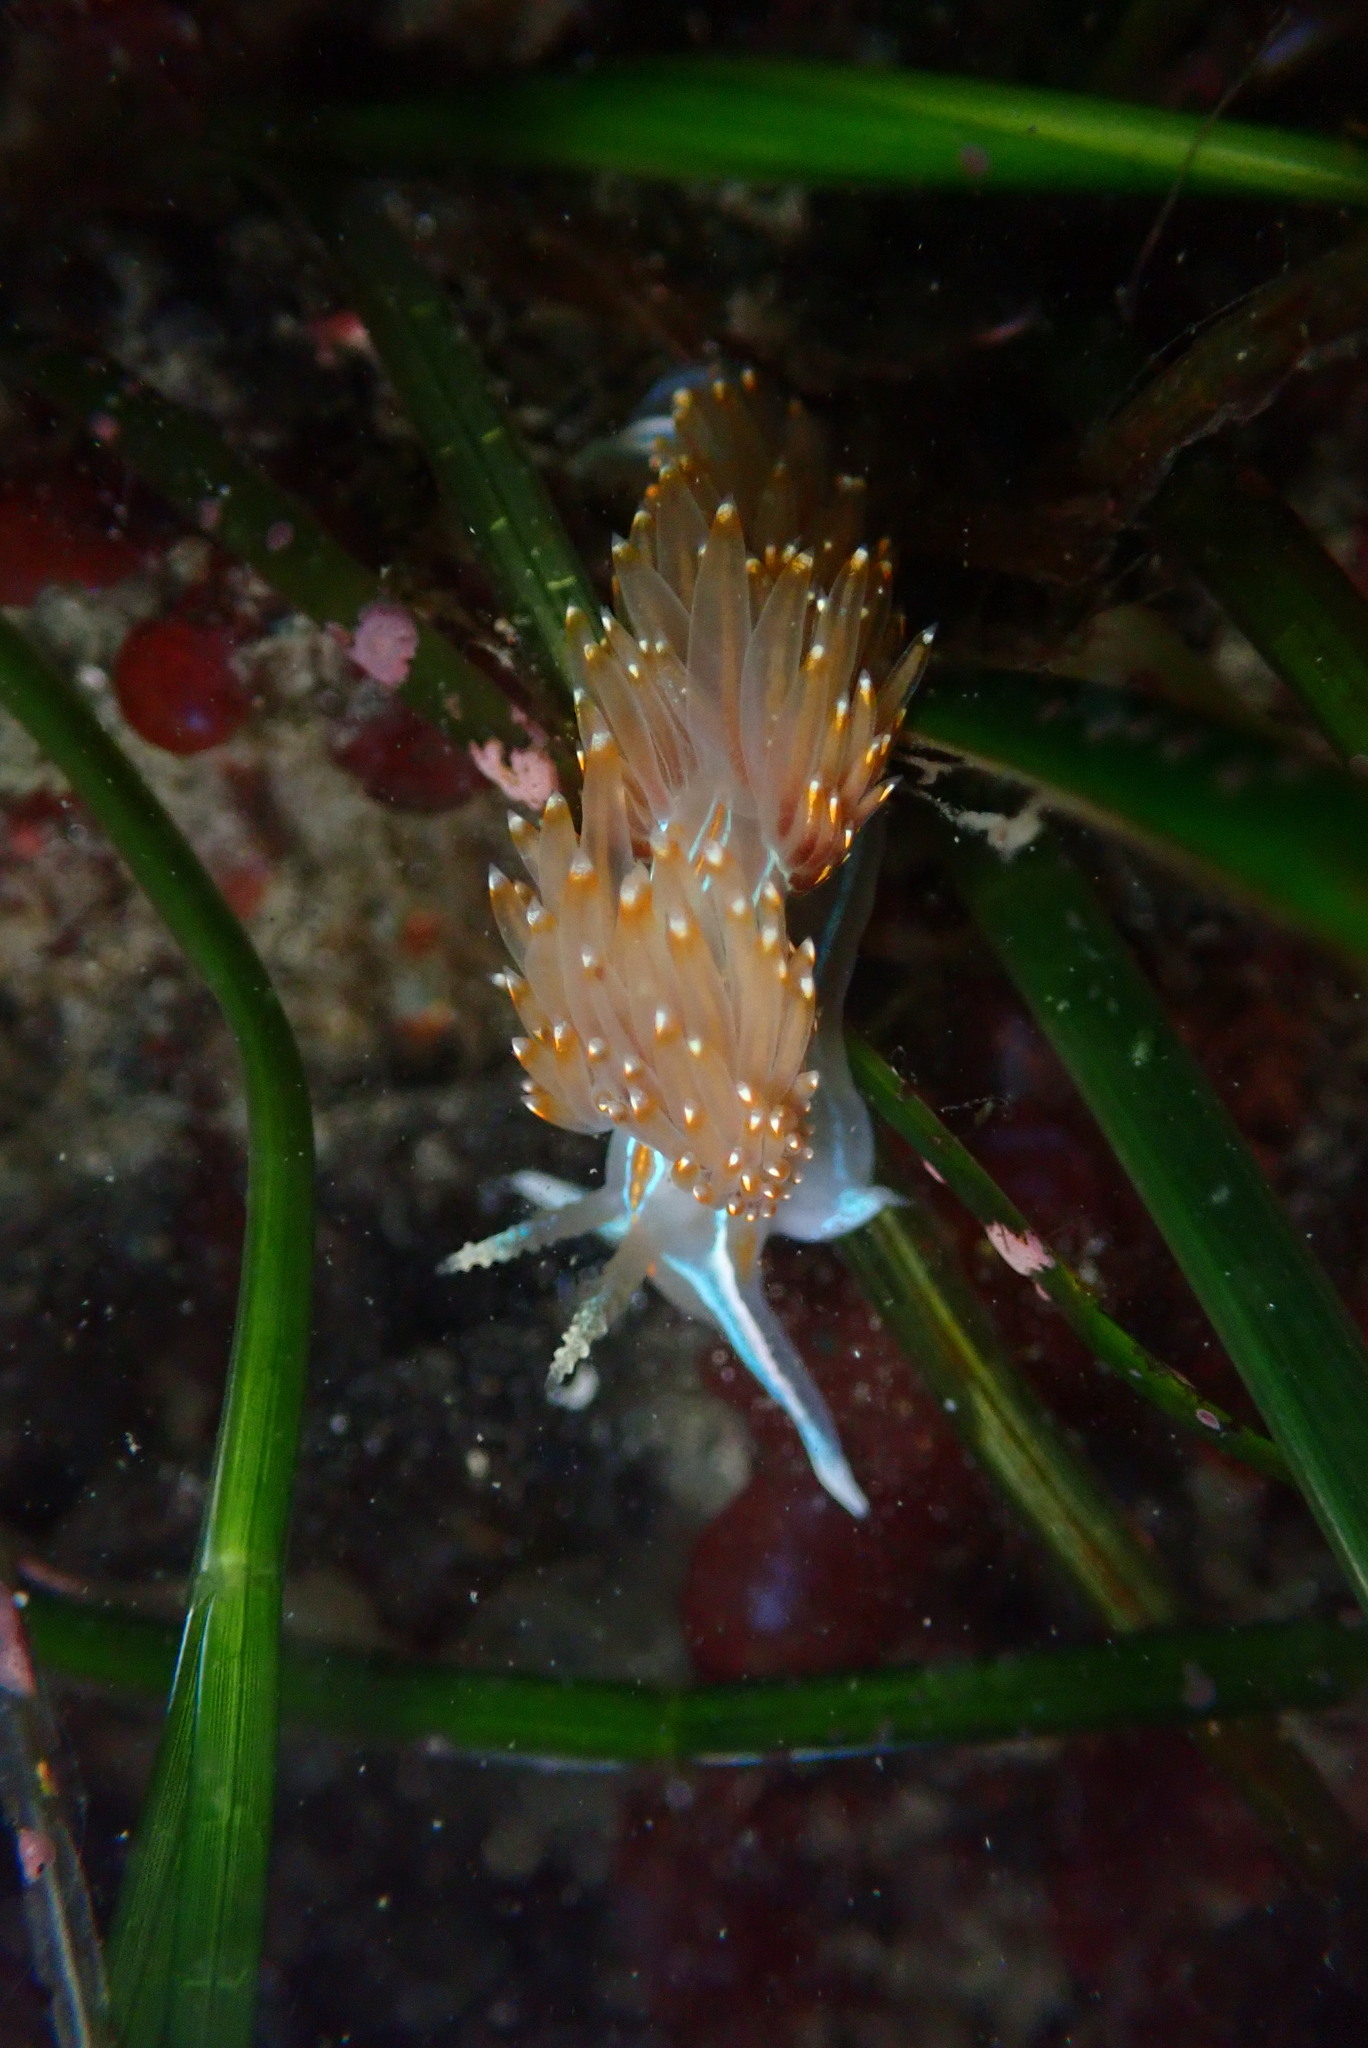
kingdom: Animalia
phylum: Mollusca
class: Gastropoda
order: Nudibranchia
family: Myrrhinidae
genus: Hermissenda
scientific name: Hermissenda opalescens
